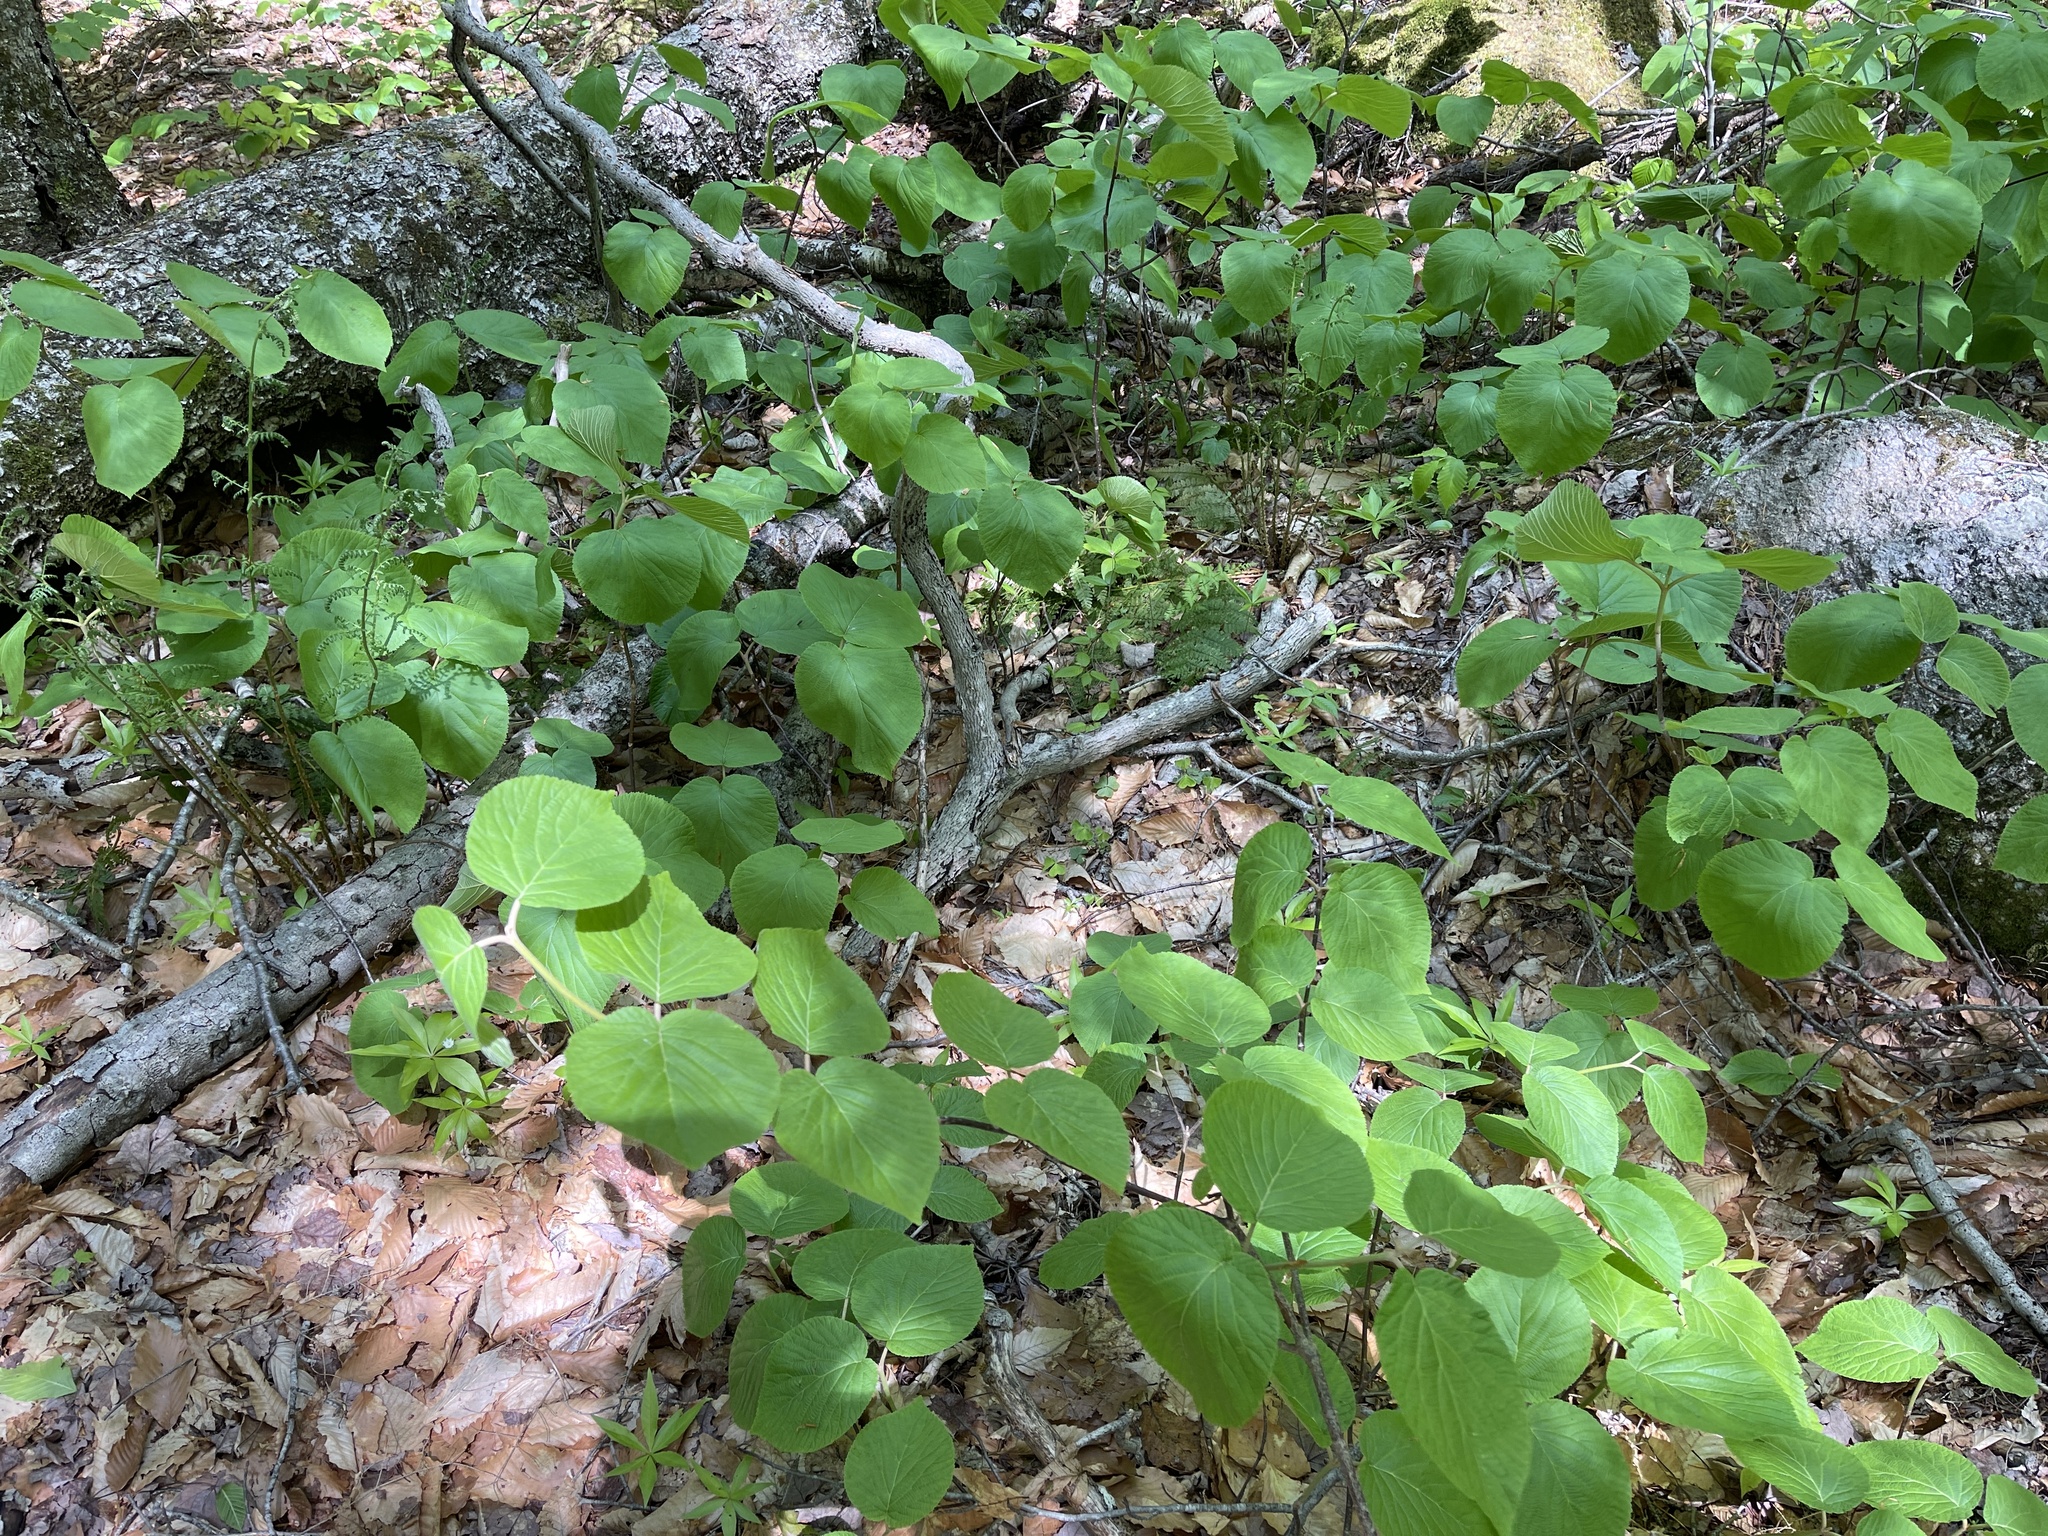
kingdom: Plantae
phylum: Tracheophyta
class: Magnoliopsida
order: Dipsacales
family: Viburnaceae
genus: Viburnum
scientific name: Viburnum lantanoides
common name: Hobblebush
